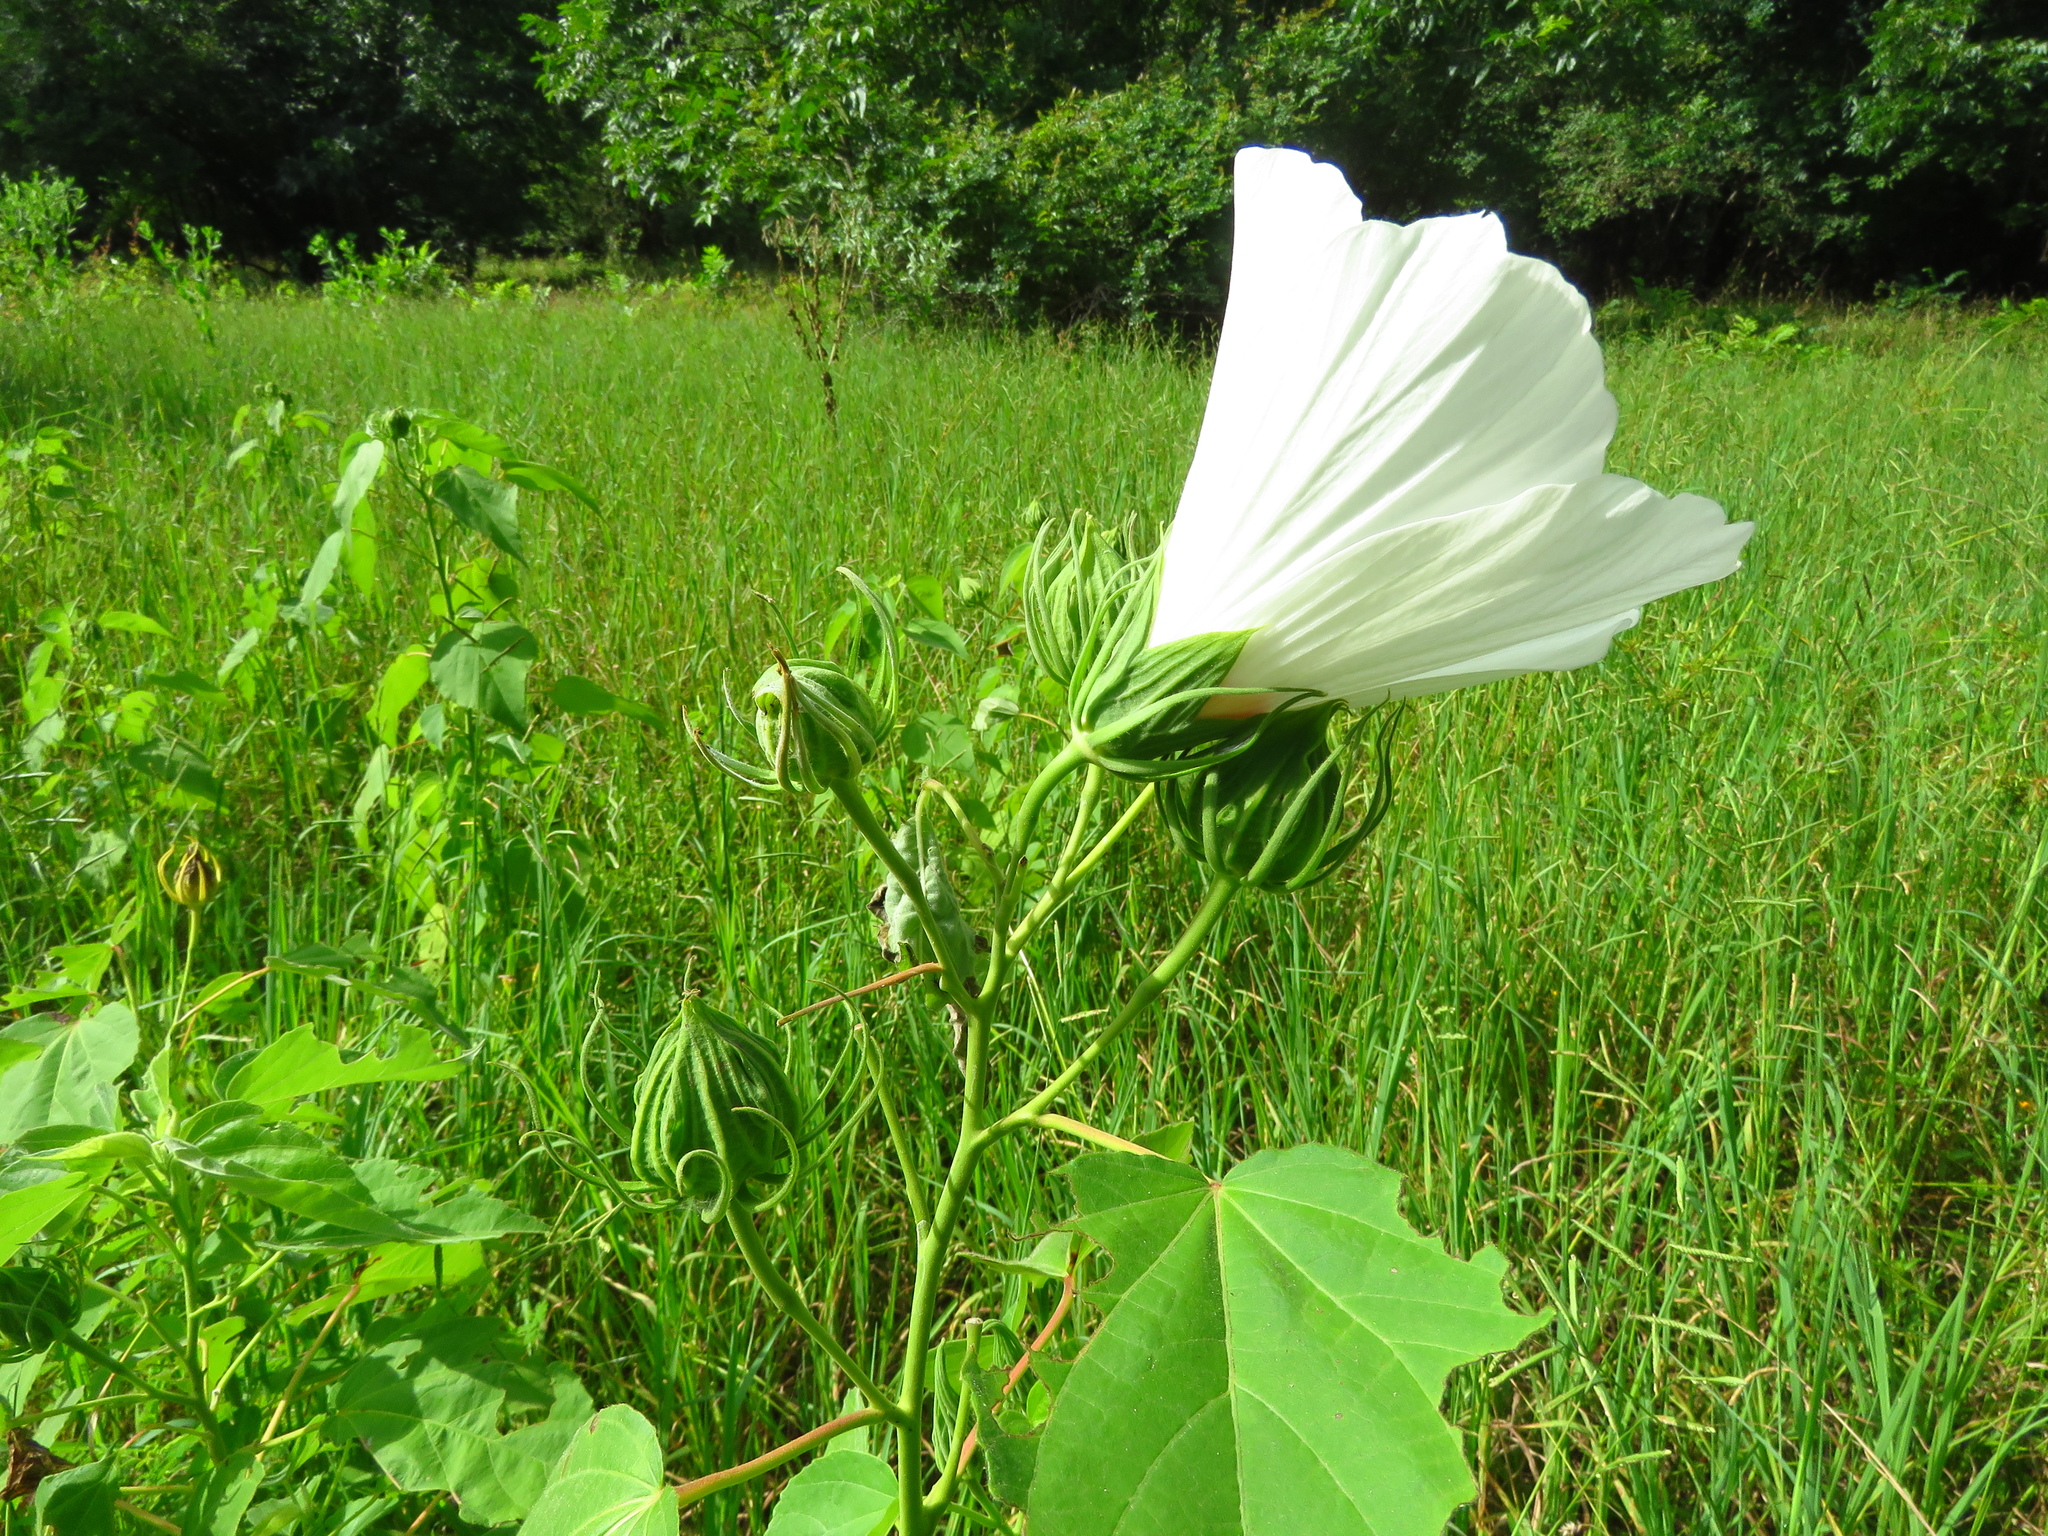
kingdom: Plantae
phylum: Tracheophyta
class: Magnoliopsida
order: Malvales
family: Malvaceae
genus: Hibiscus
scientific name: Hibiscus moscheutos
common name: Common rose-mallow
